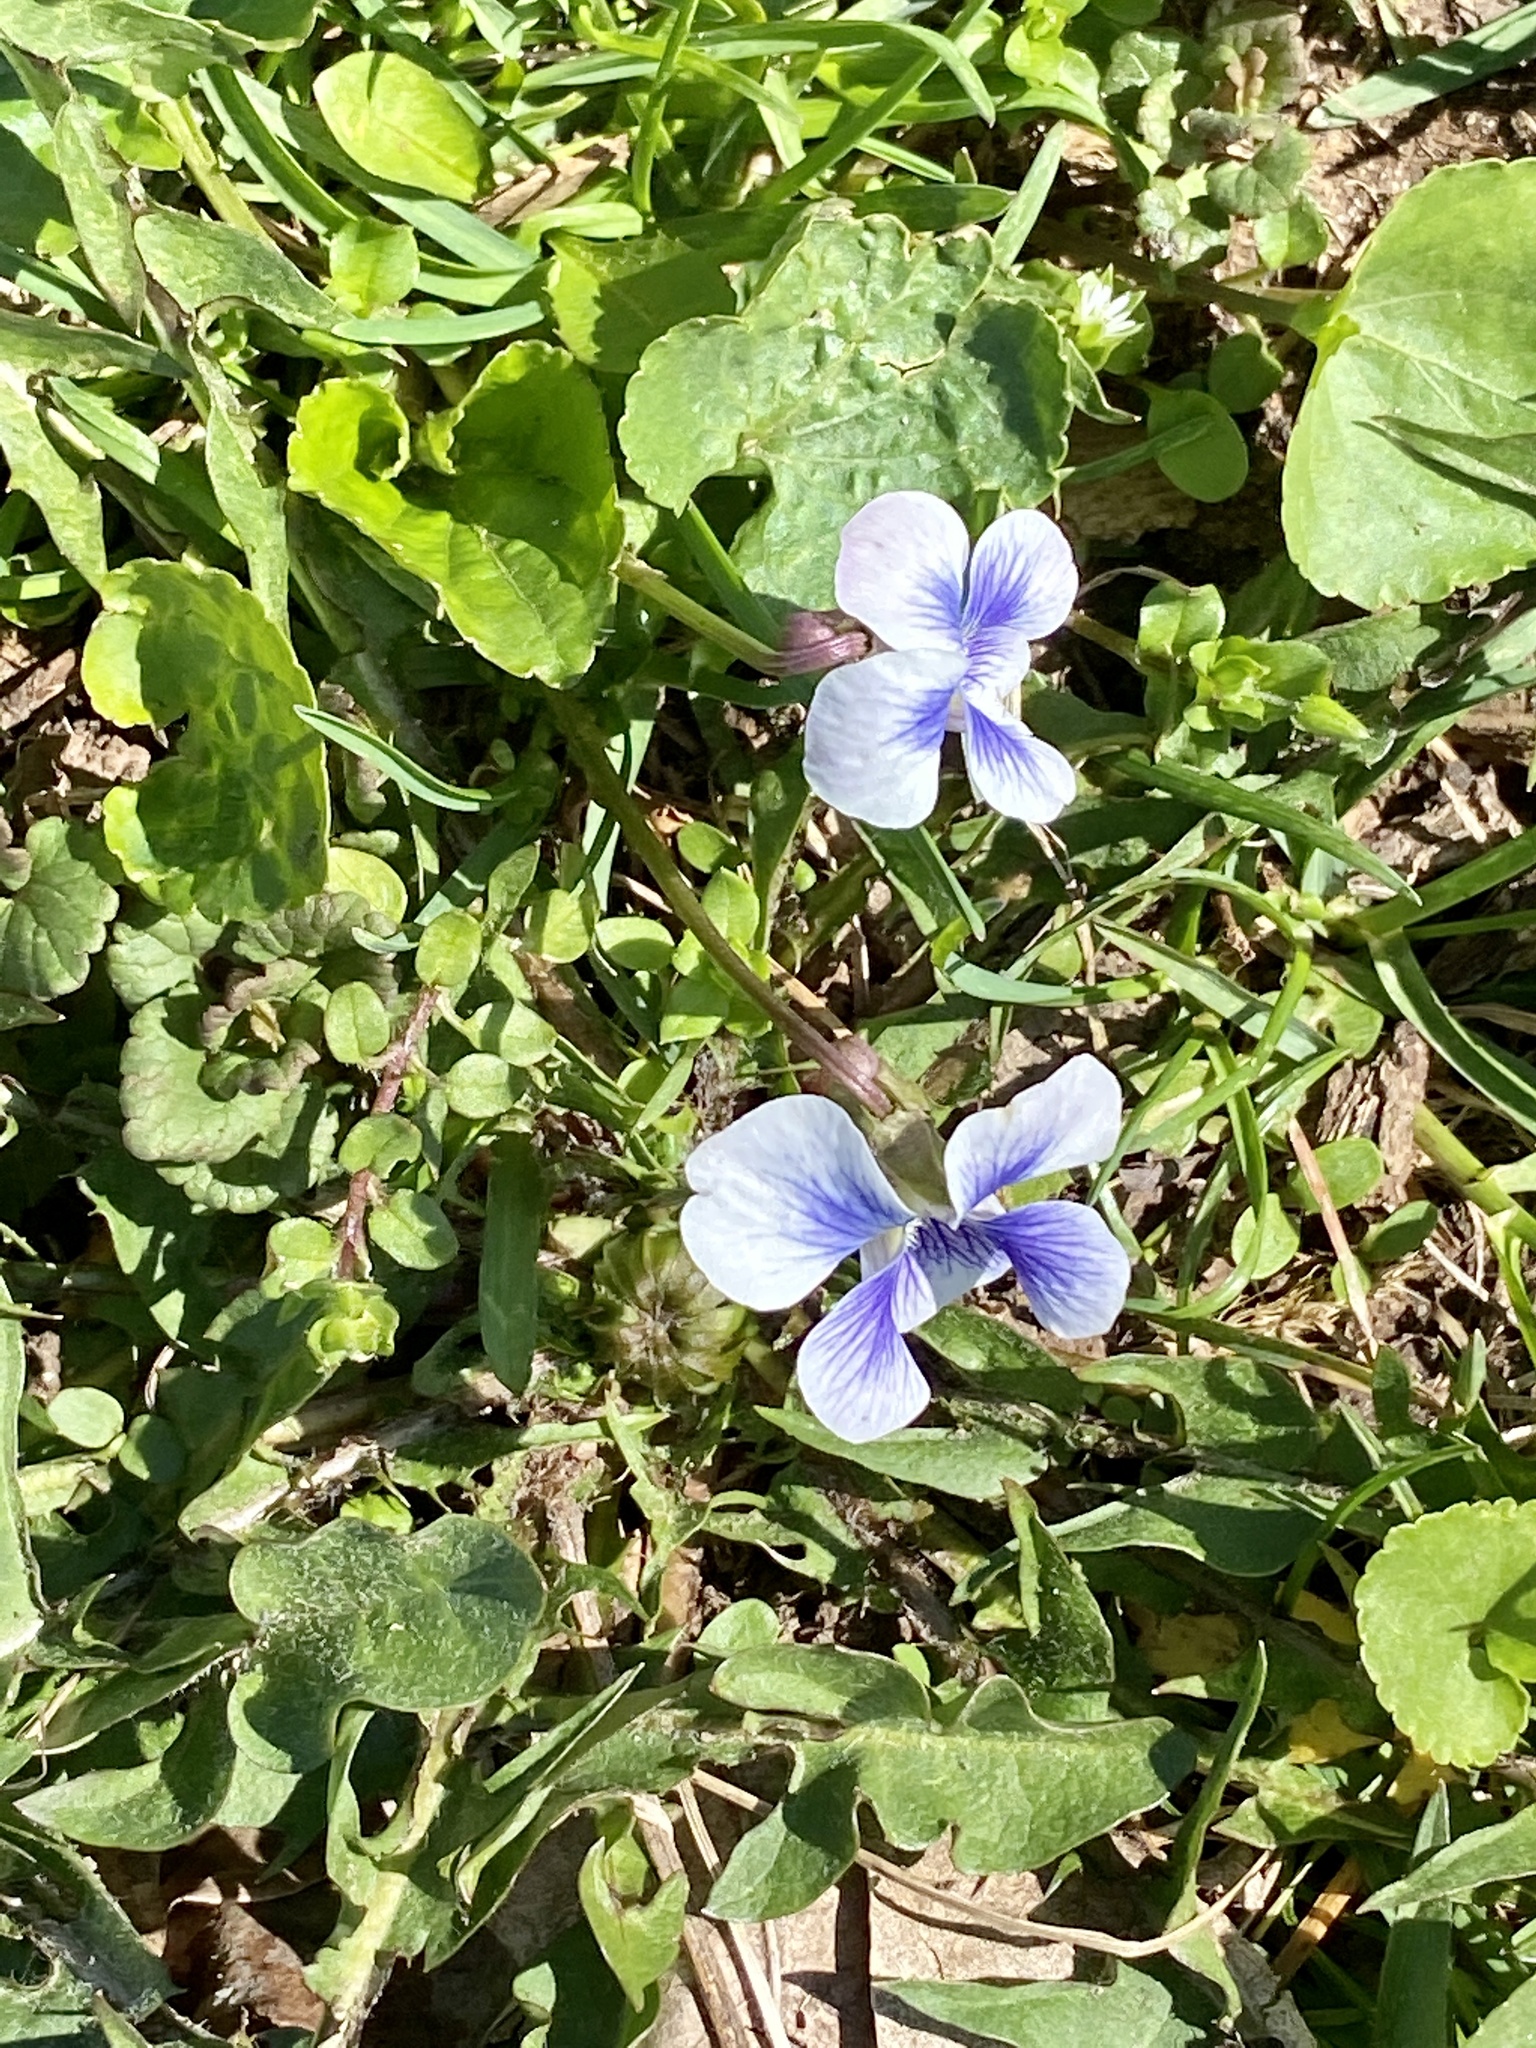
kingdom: Plantae
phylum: Tracheophyta
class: Magnoliopsida
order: Malpighiales
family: Violaceae
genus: Viola
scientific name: Viola sororia
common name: Dooryard violet
